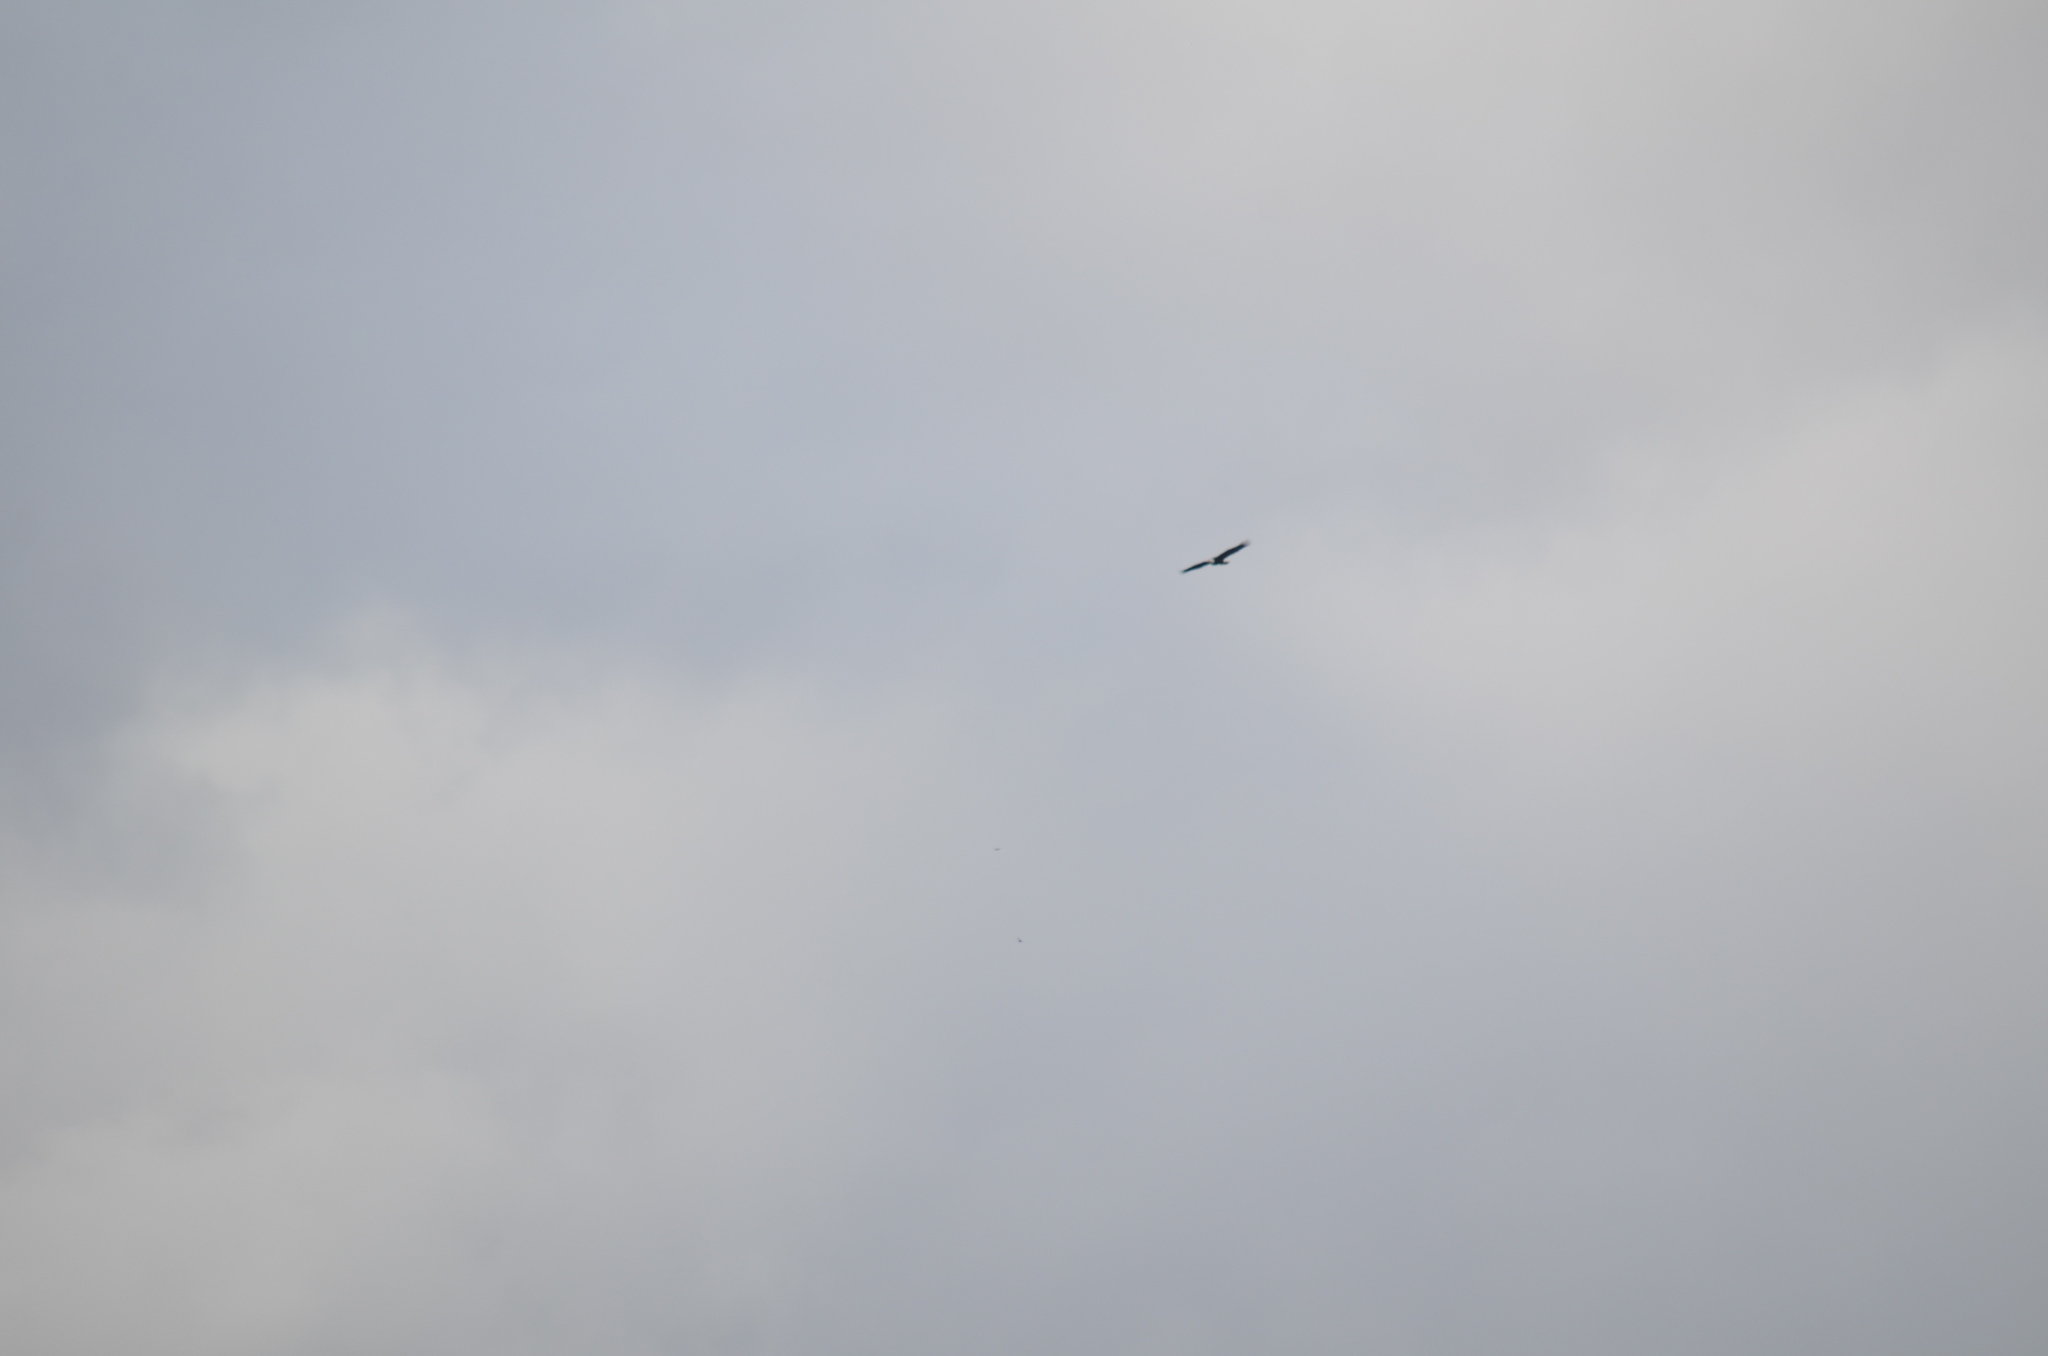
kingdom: Animalia
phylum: Chordata
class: Aves
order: Accipitriformes
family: Accipitridae
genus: Haliaeetus
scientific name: Haliaeetus leucocephalus
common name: Bald eagle
